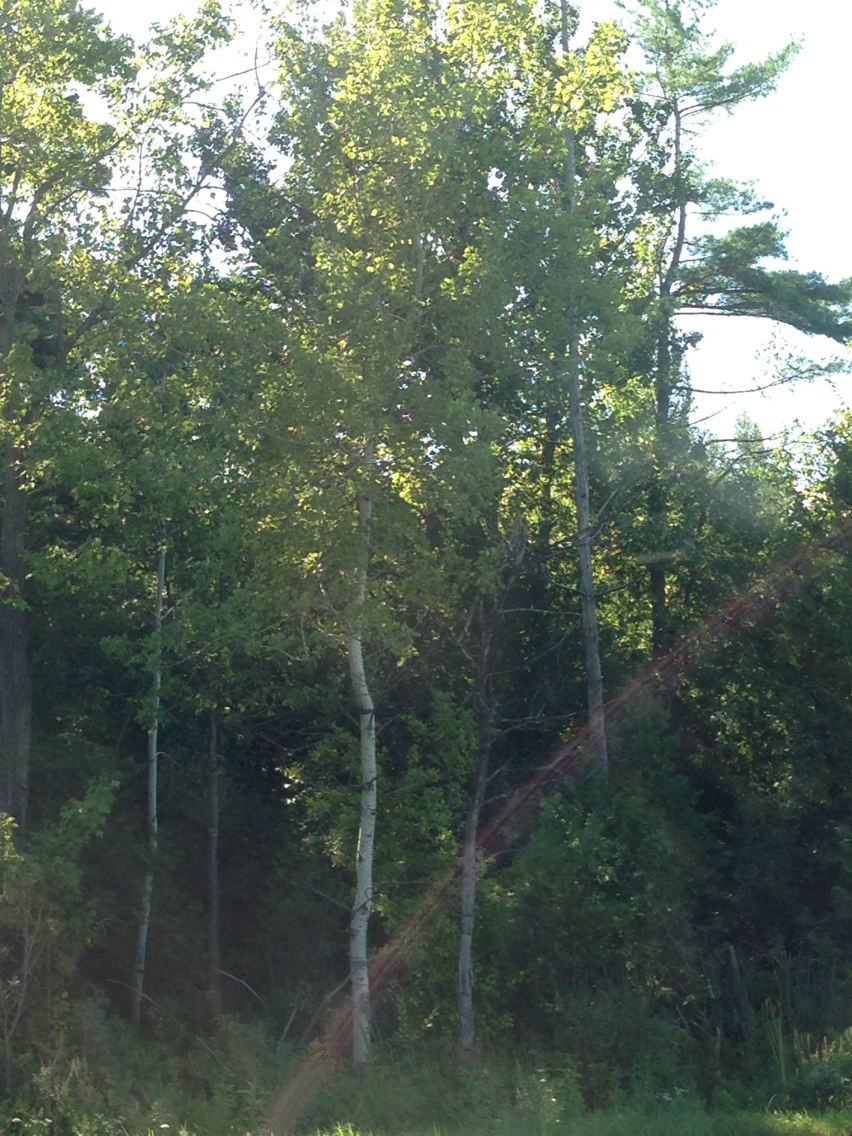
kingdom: Plantae
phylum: Tracheophyta
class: Magnoliopsida
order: Malpighiales
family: Salicaceae
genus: Populus
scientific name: Populus tremuloides
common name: Quaking aspen
